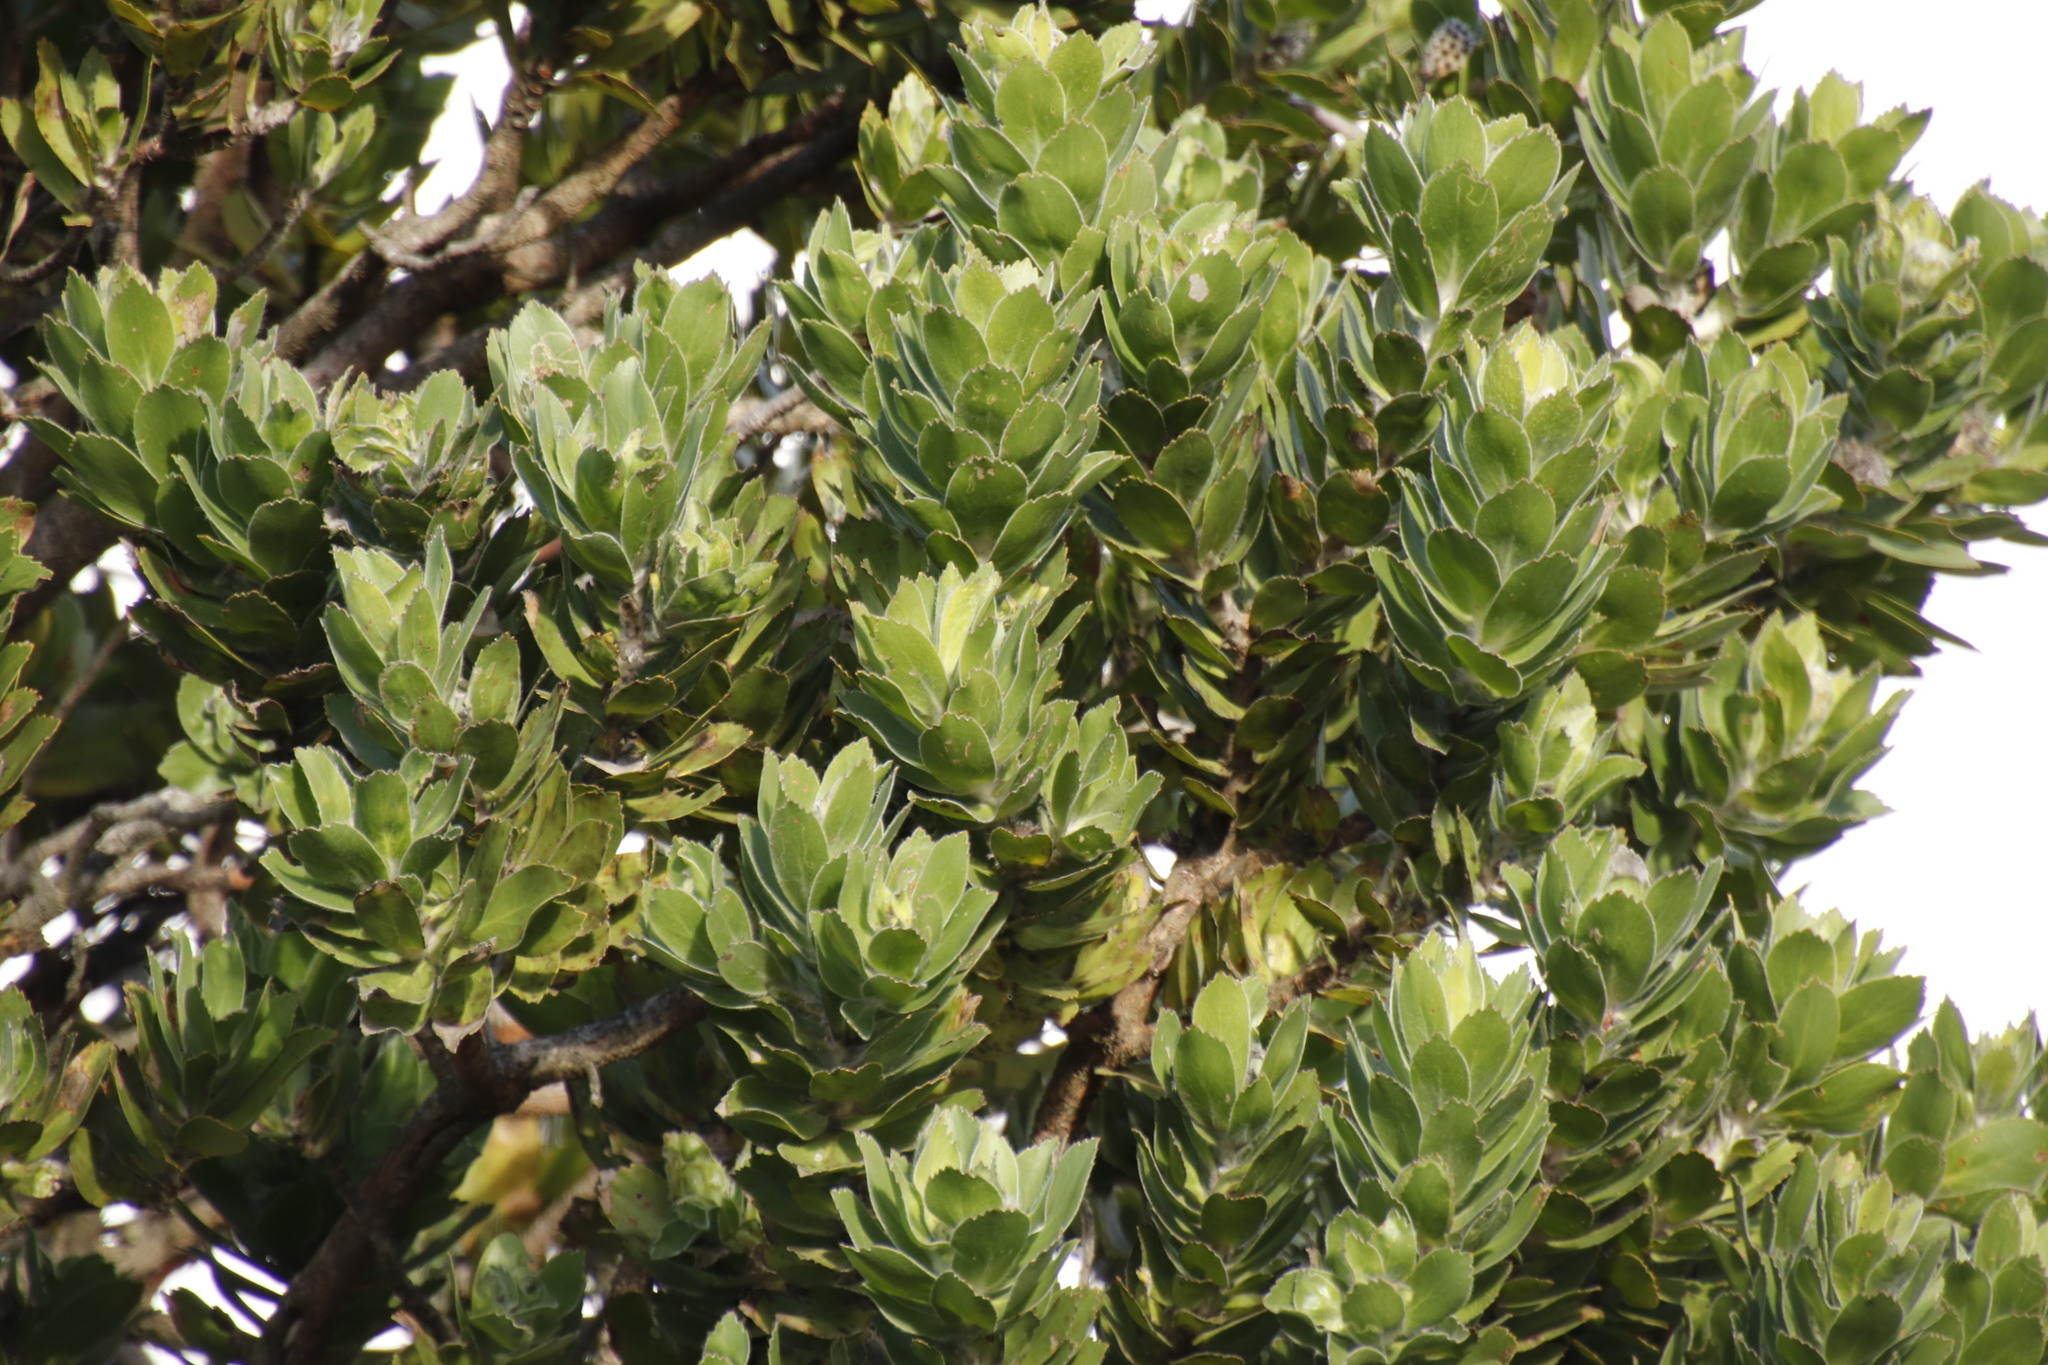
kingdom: Plantae
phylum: Tracheophyta
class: Magnoliopsida
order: Proteales
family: Proteaceae
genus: Leucospermum
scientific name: Leucospermum conocarpodendron
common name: Tree pincushion
